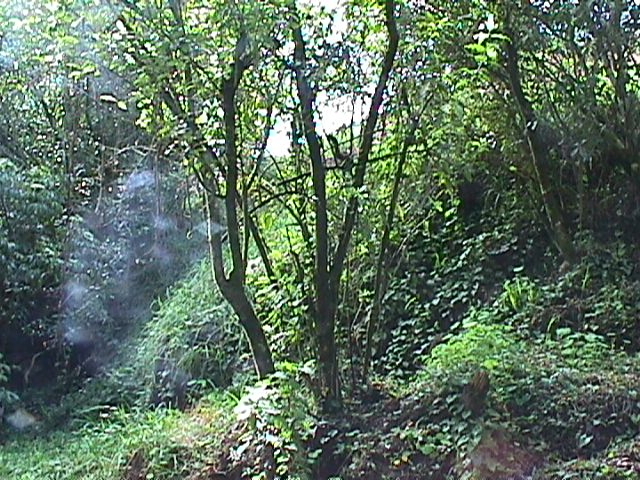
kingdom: Plantae
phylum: Tracheophyta
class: Magnoliopsida
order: Malpighiales
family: Violaceae
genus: Melicytus
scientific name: Melicytus ramiflorus
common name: Mahoe
